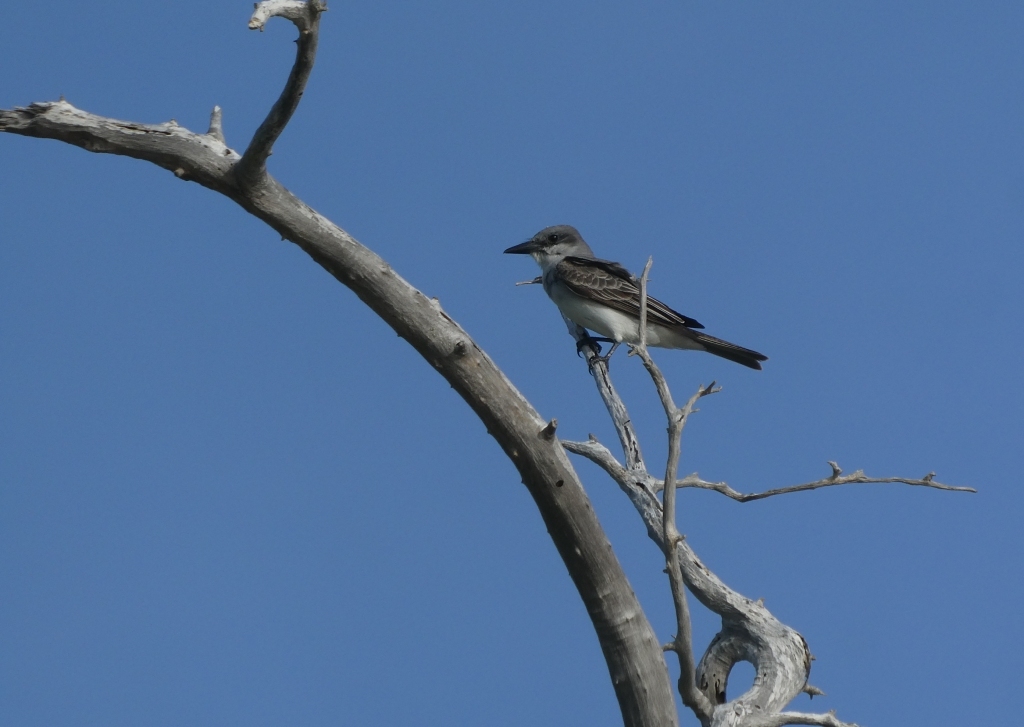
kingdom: Animalia
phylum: Chordata
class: Aves
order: Passeriformes
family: Tyrannidae
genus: Tyrannus
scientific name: Tyrannus dominicensis
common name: Gray kingbird
